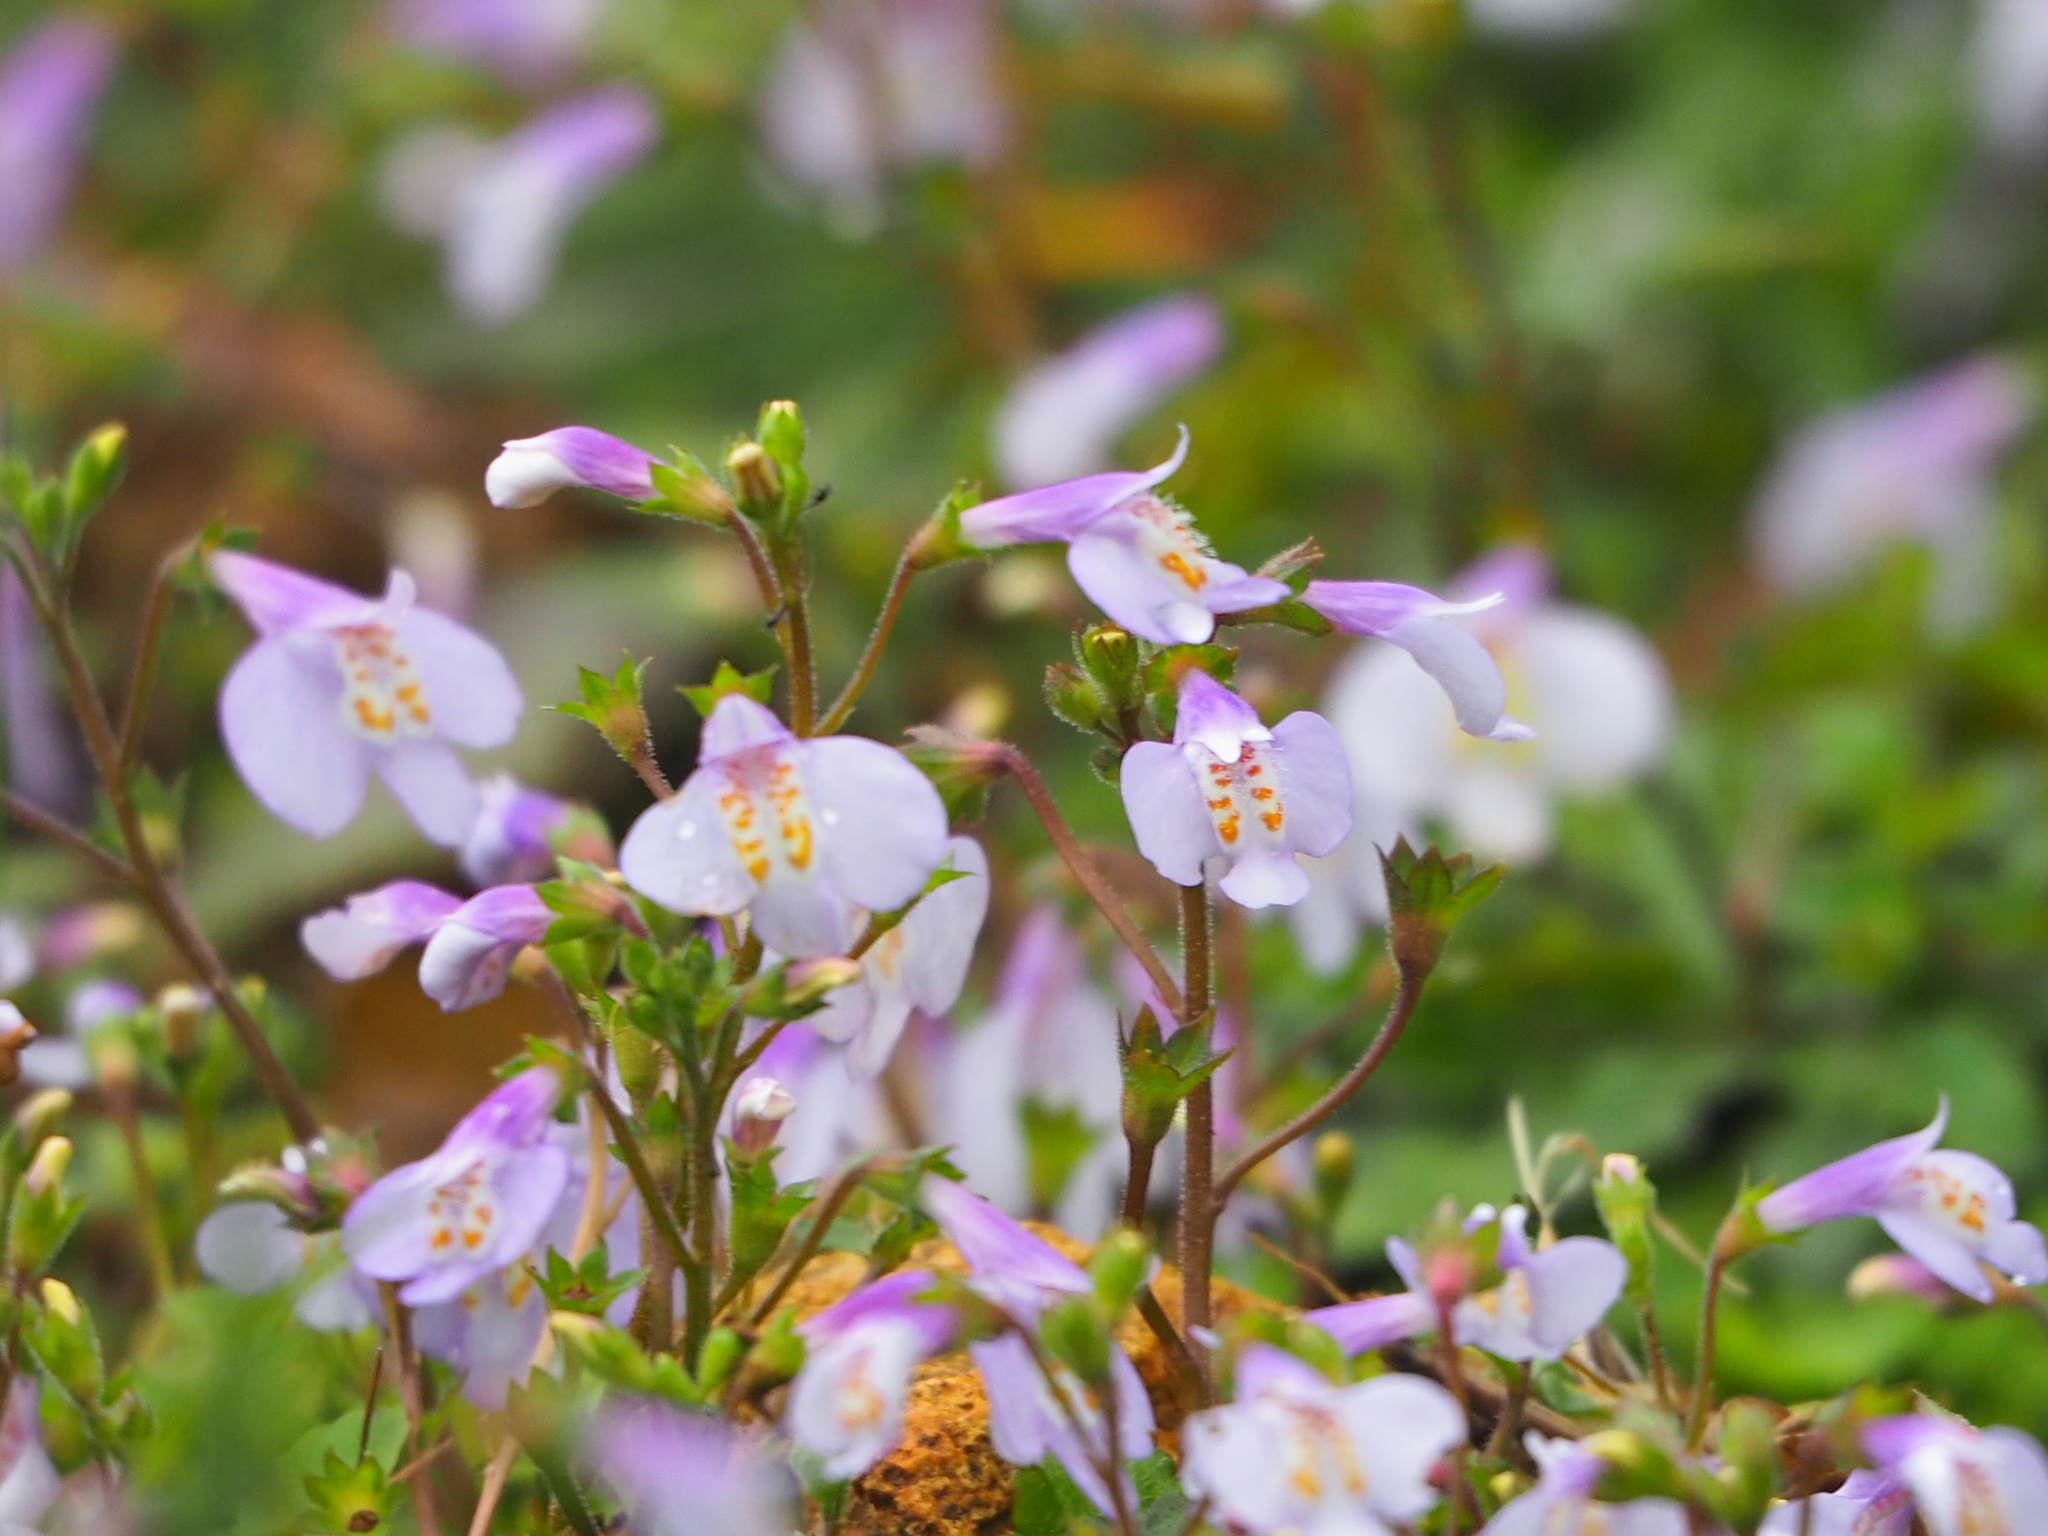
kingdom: Plantae
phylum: Tracheophyta
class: Magnoliopsida
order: Lamiales
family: Mazaceae
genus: Mazus
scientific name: Mazus fauriei
